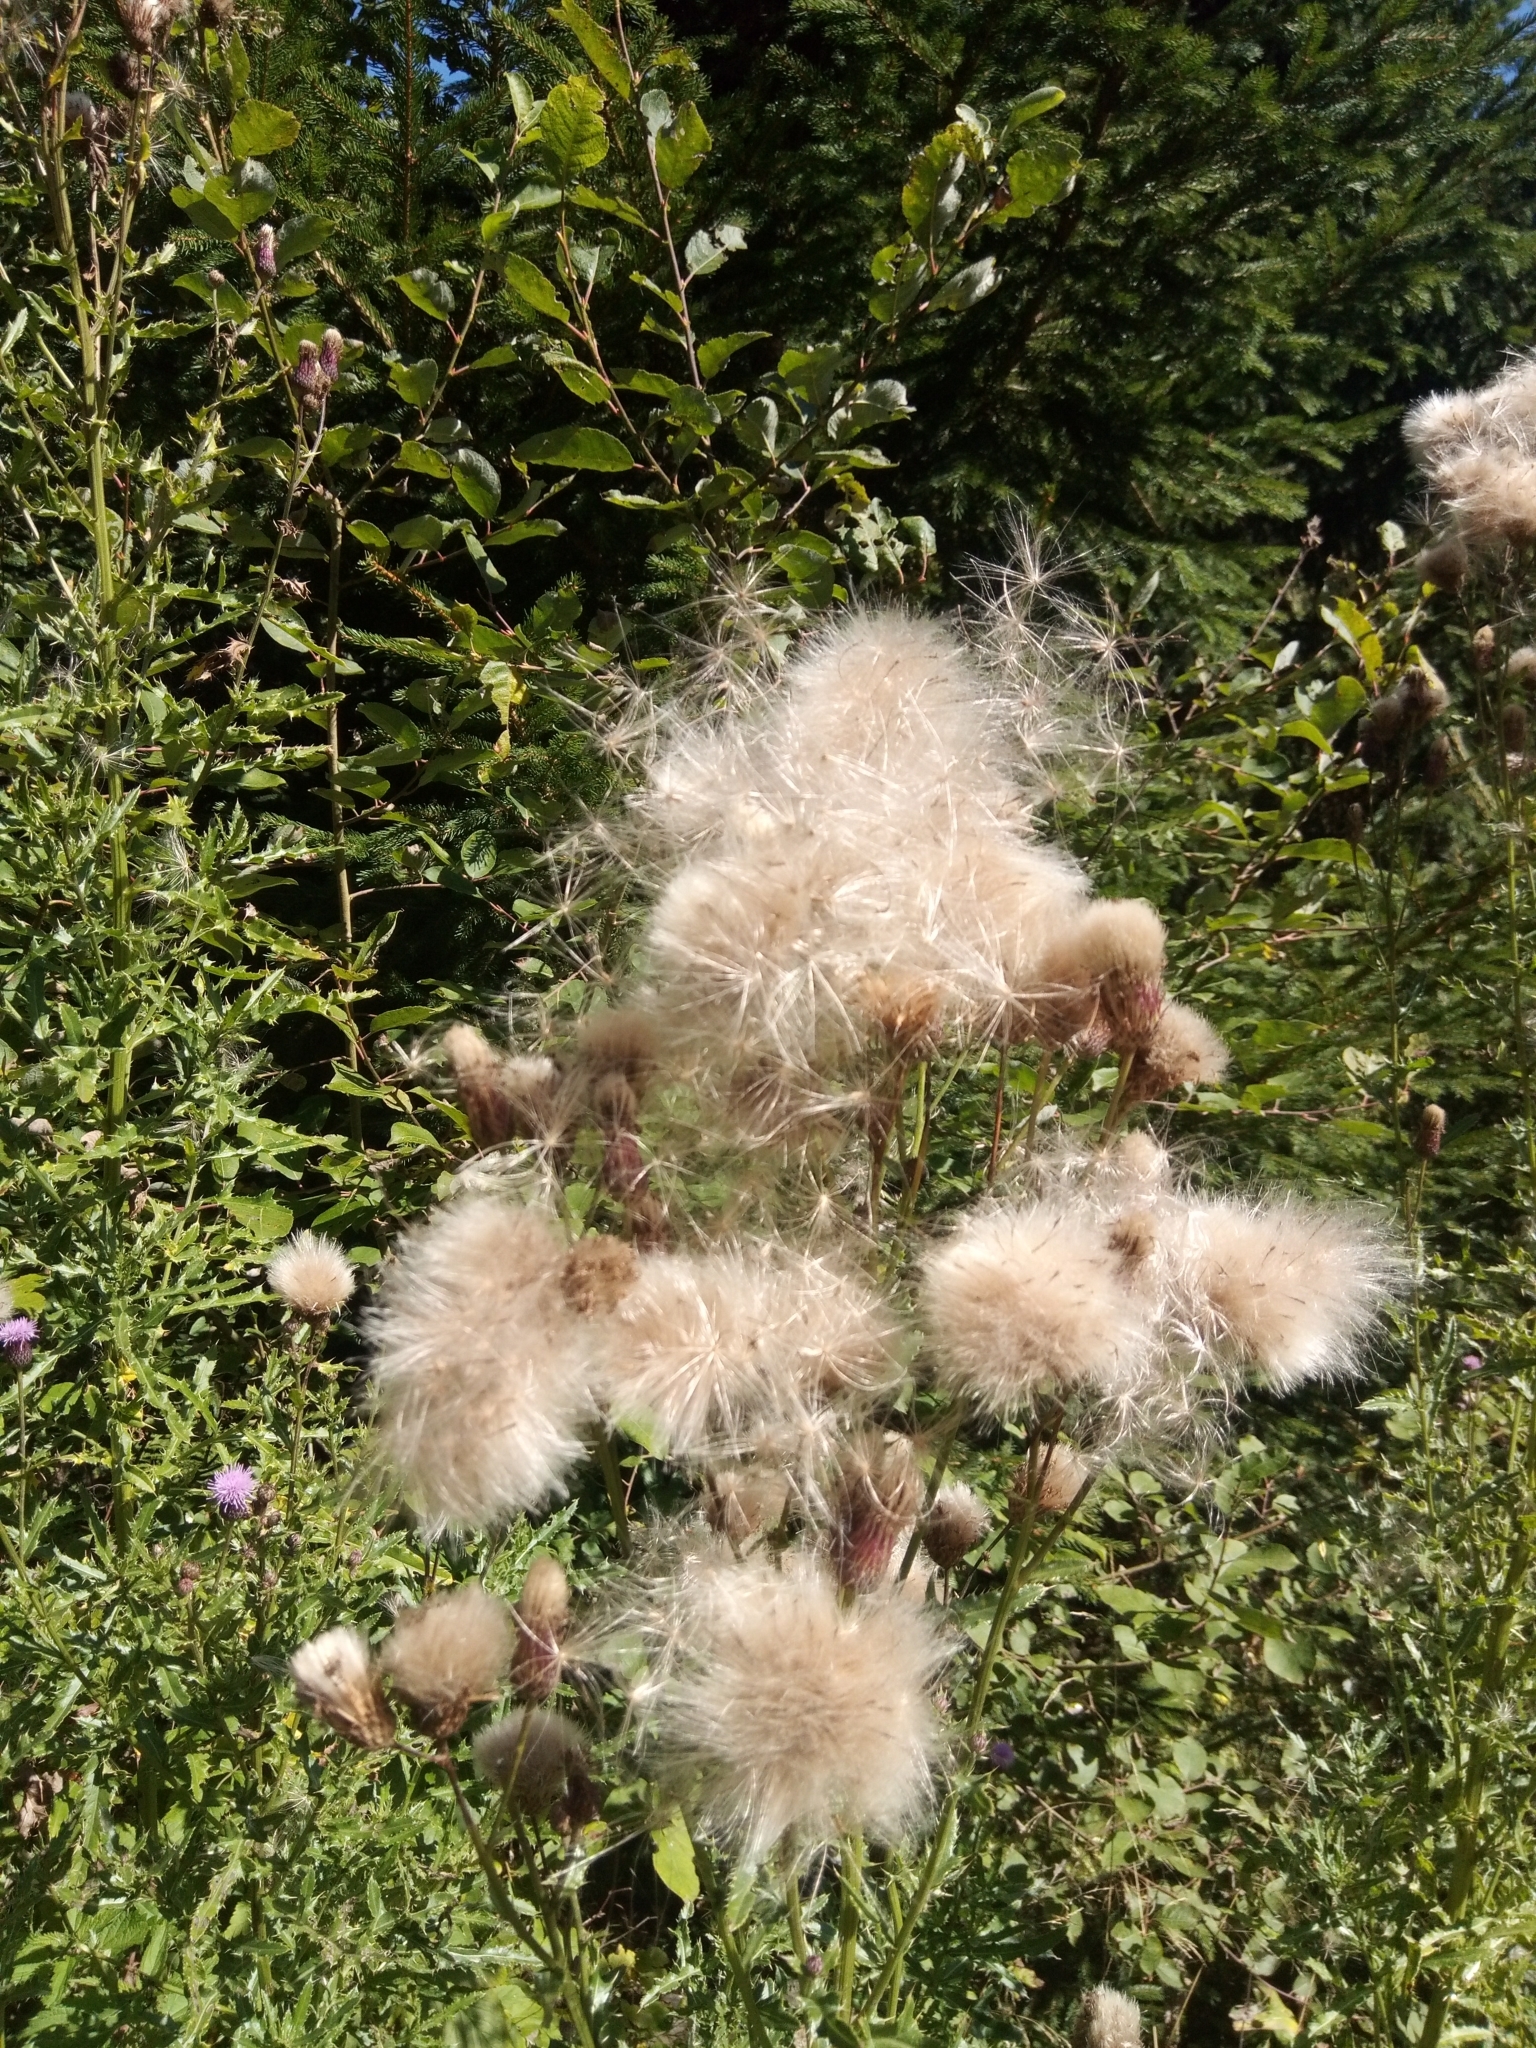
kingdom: Plantae
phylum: Tracheophyta
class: Magnoliopsida
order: Asterales
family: Asteraceae
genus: Cirsium
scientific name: Cirsium arvense
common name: Creeping thistle
